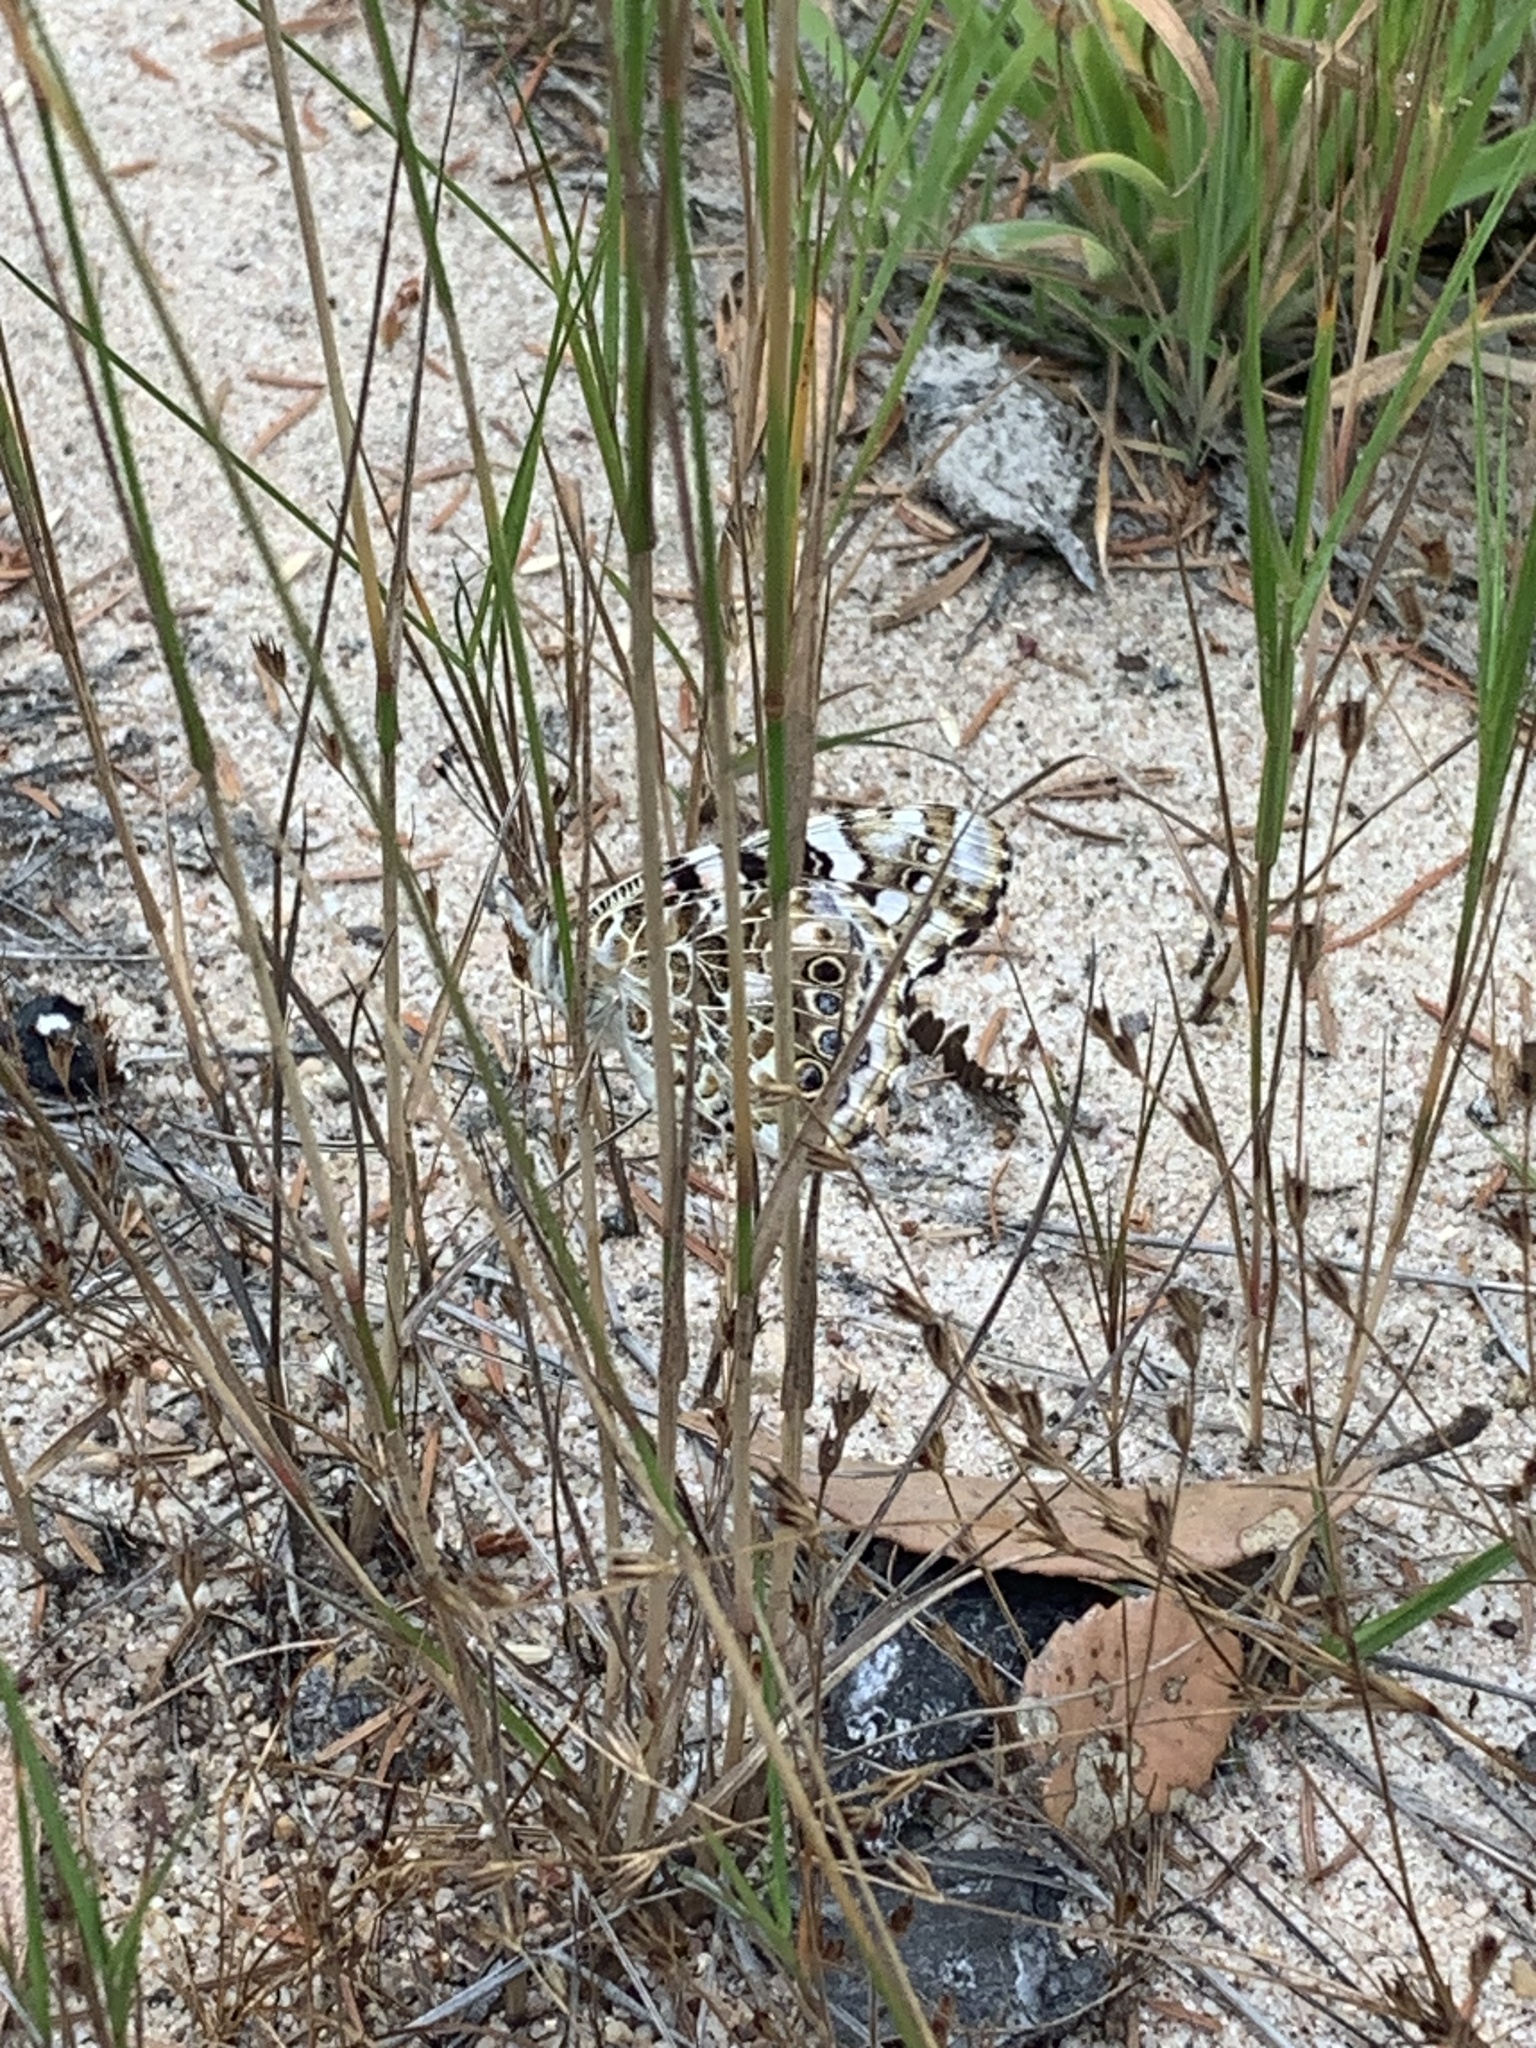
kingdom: Animalia
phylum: Arthropoda
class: Insecta
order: Lepidoptera
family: Nymphalidae
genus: Vanessa
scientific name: Vanessa cardui
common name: Painted lady
